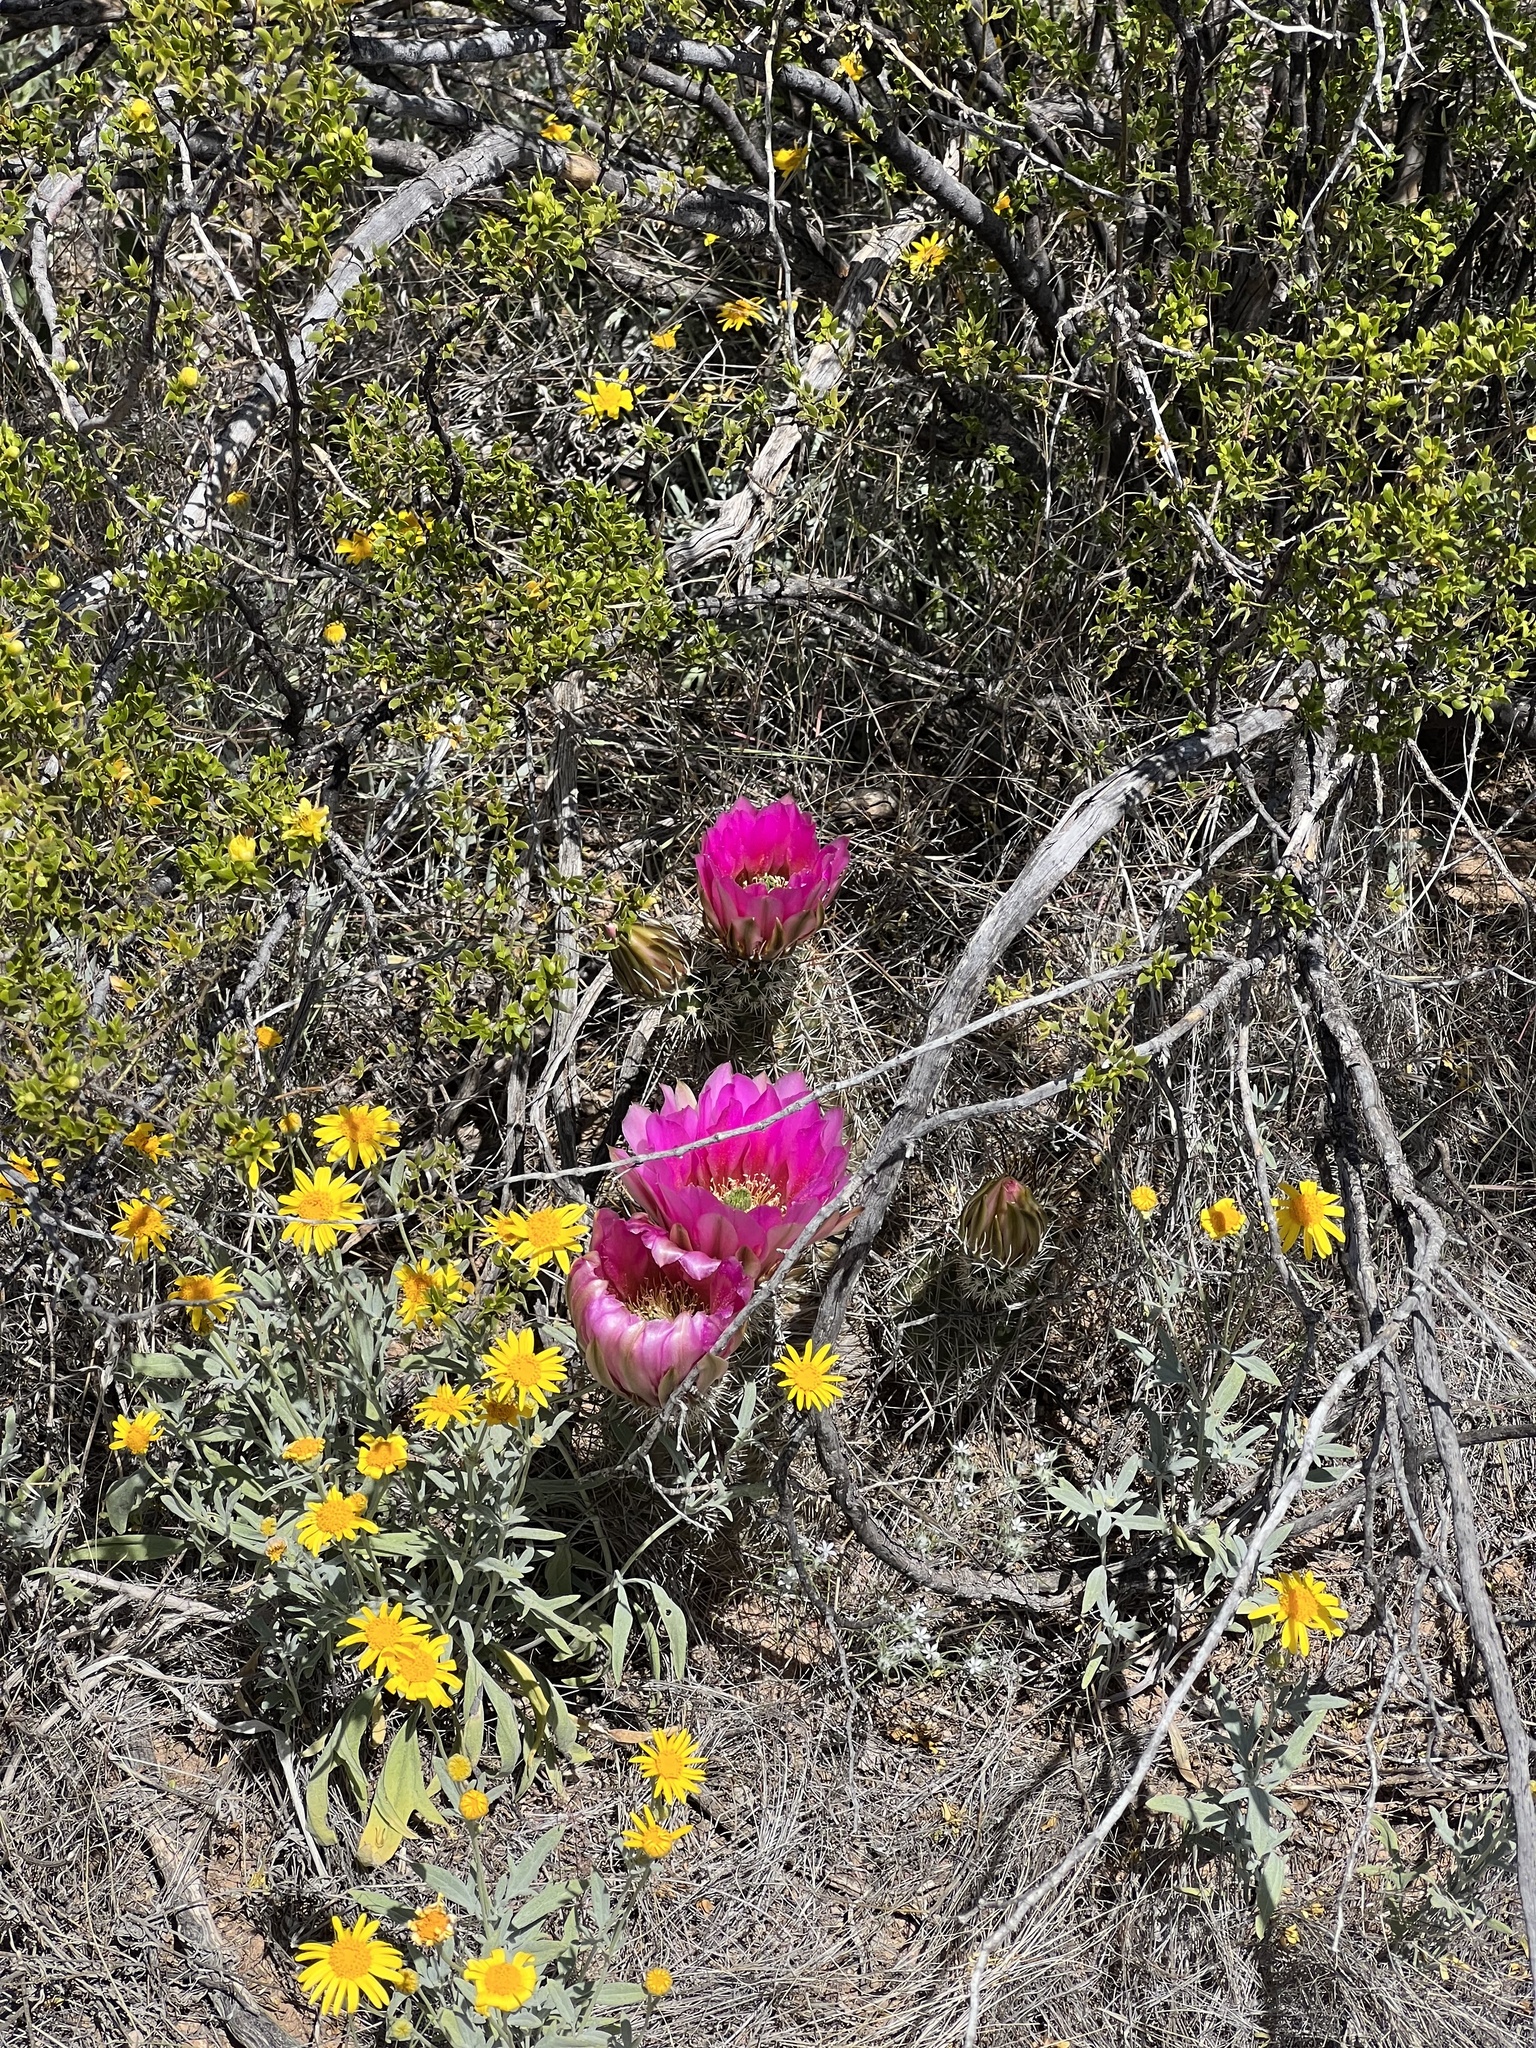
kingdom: Plantae
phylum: Tracheophyta
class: Magnoliopsida
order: Caryophyllales
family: Cactaceae
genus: Echinocereus
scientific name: Echinocereus fasciculatus
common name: Bundle hedgehog
